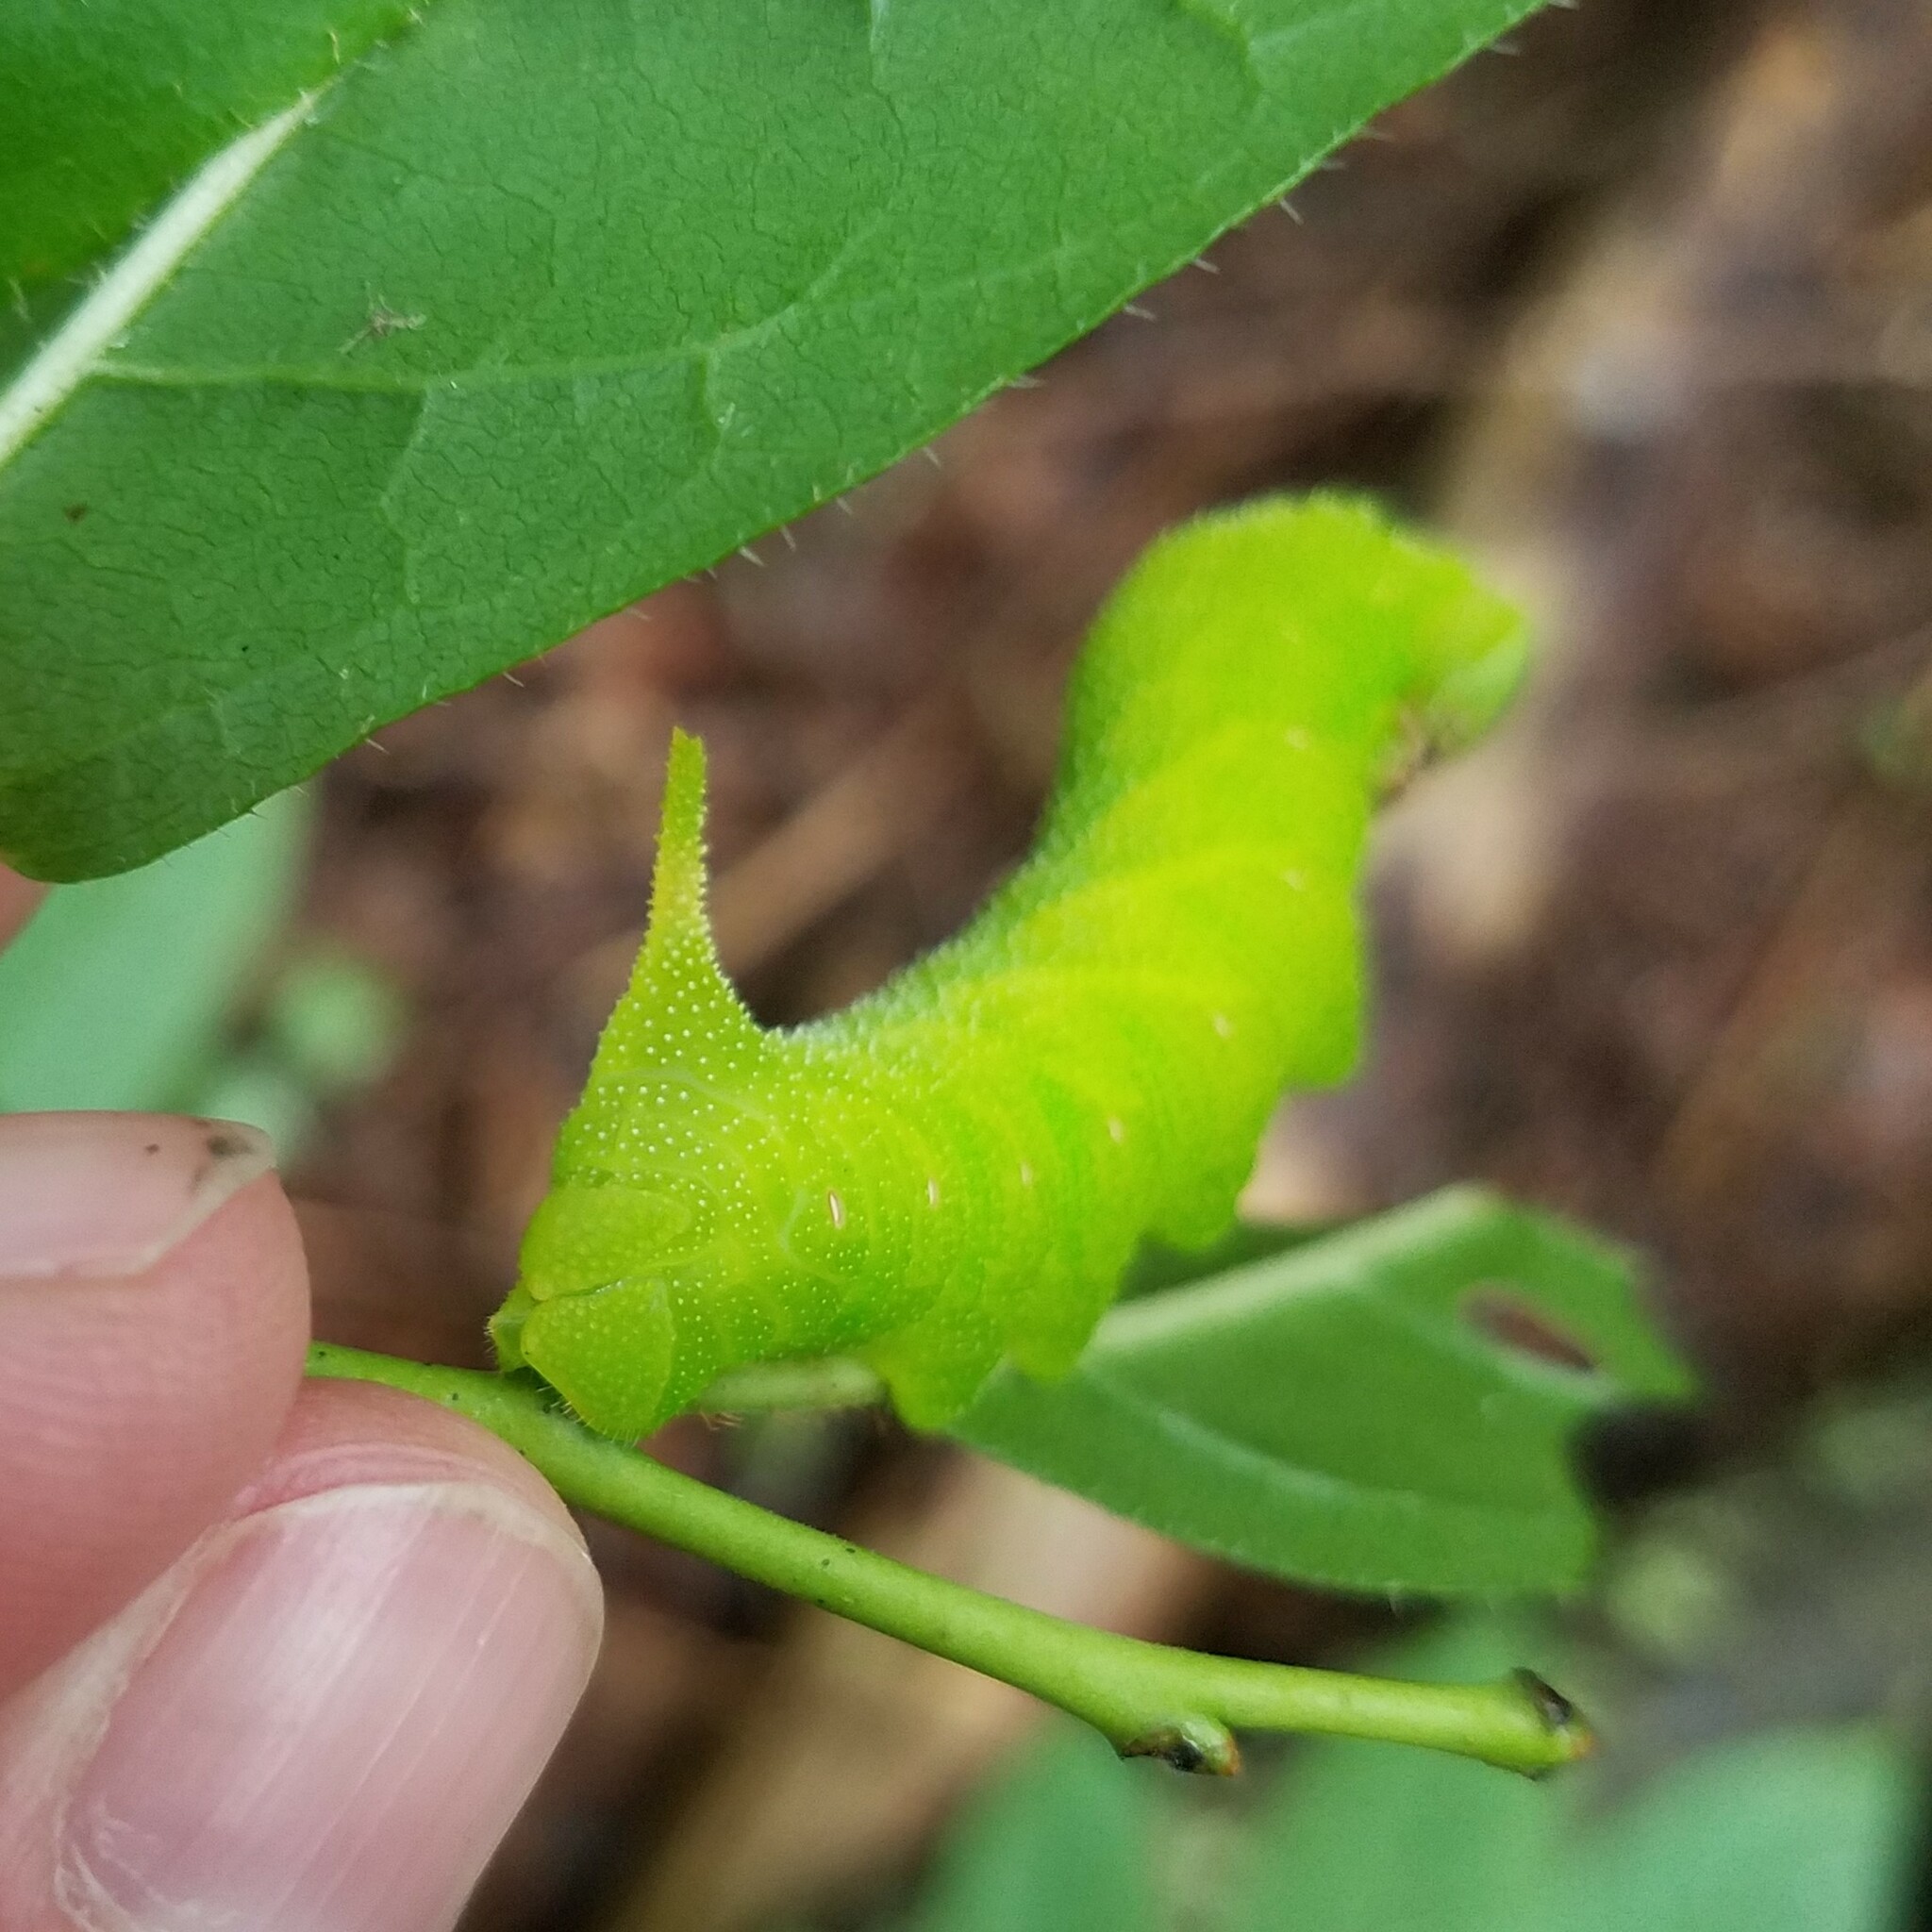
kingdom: Animalia
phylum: Arthropoda
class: Insecta
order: Lepidoptera
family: Sphingidae
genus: Paonias
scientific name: Paonias astylus
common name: Huckleberry sphinx
